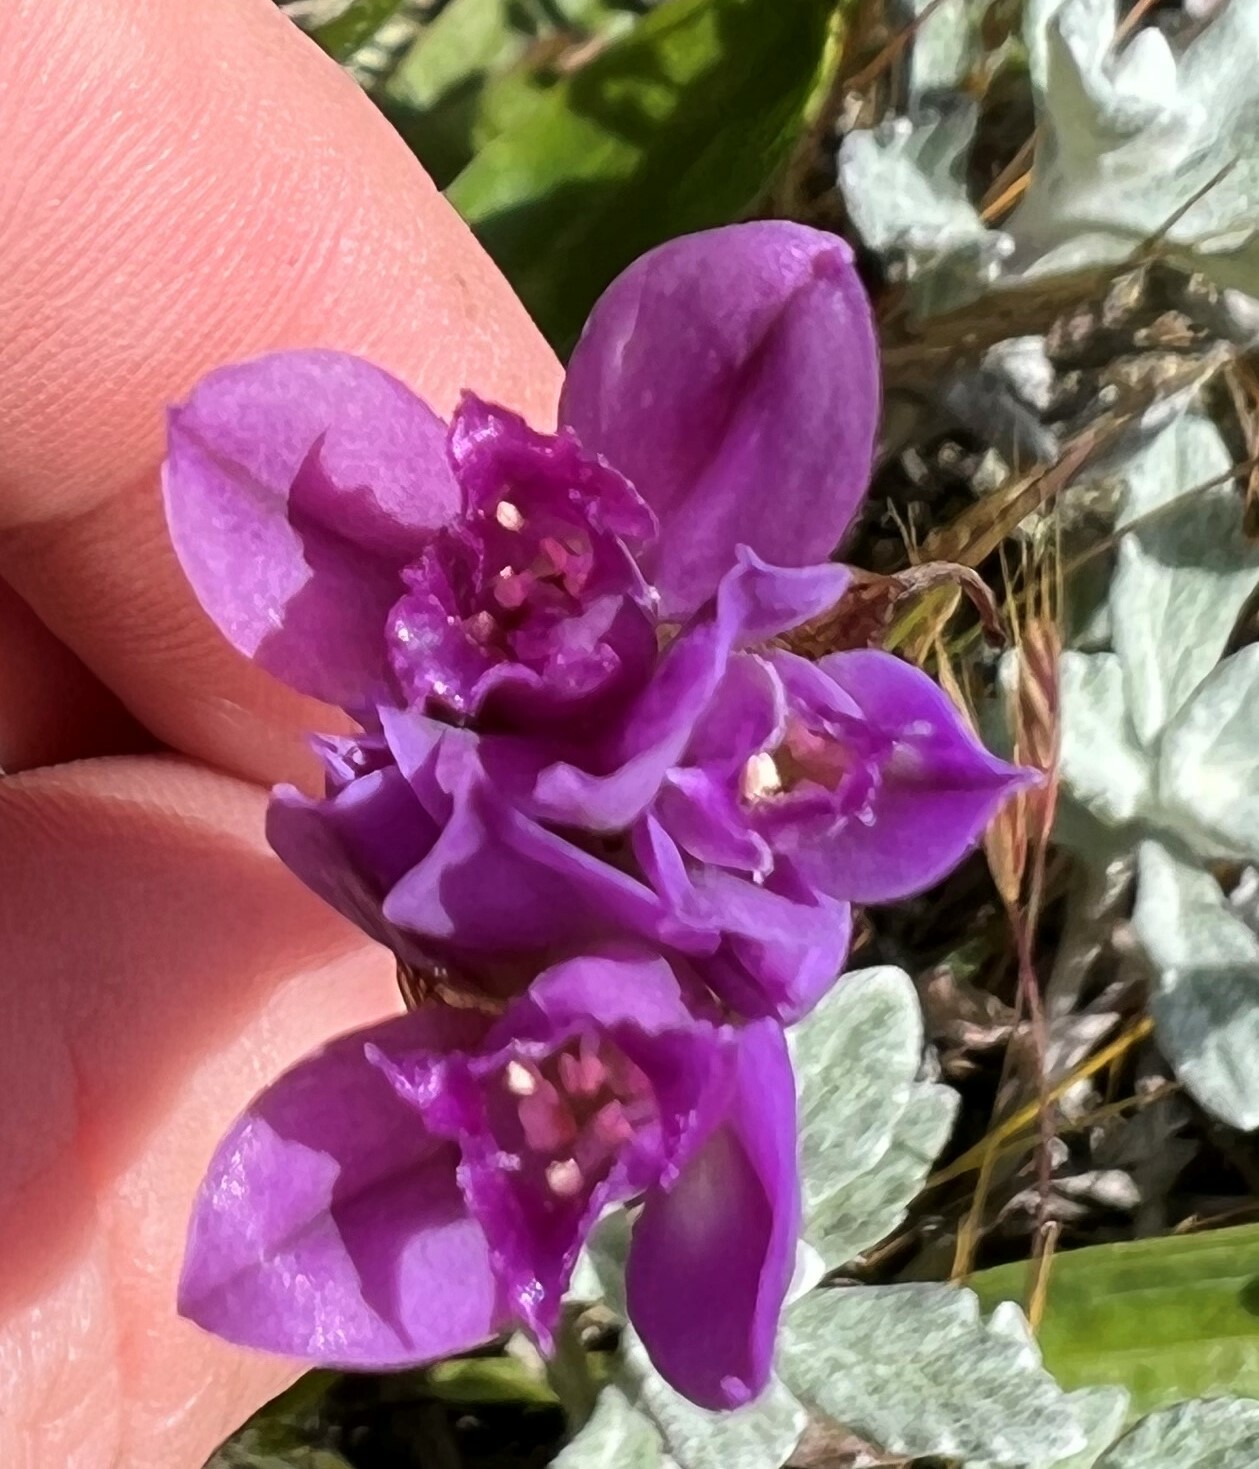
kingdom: Plantae
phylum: Tracheophyta
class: Liliopsida
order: Asparagales
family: Amaryllidaceae
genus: Allium
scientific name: Allium acuminatum
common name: Hooker's onion
